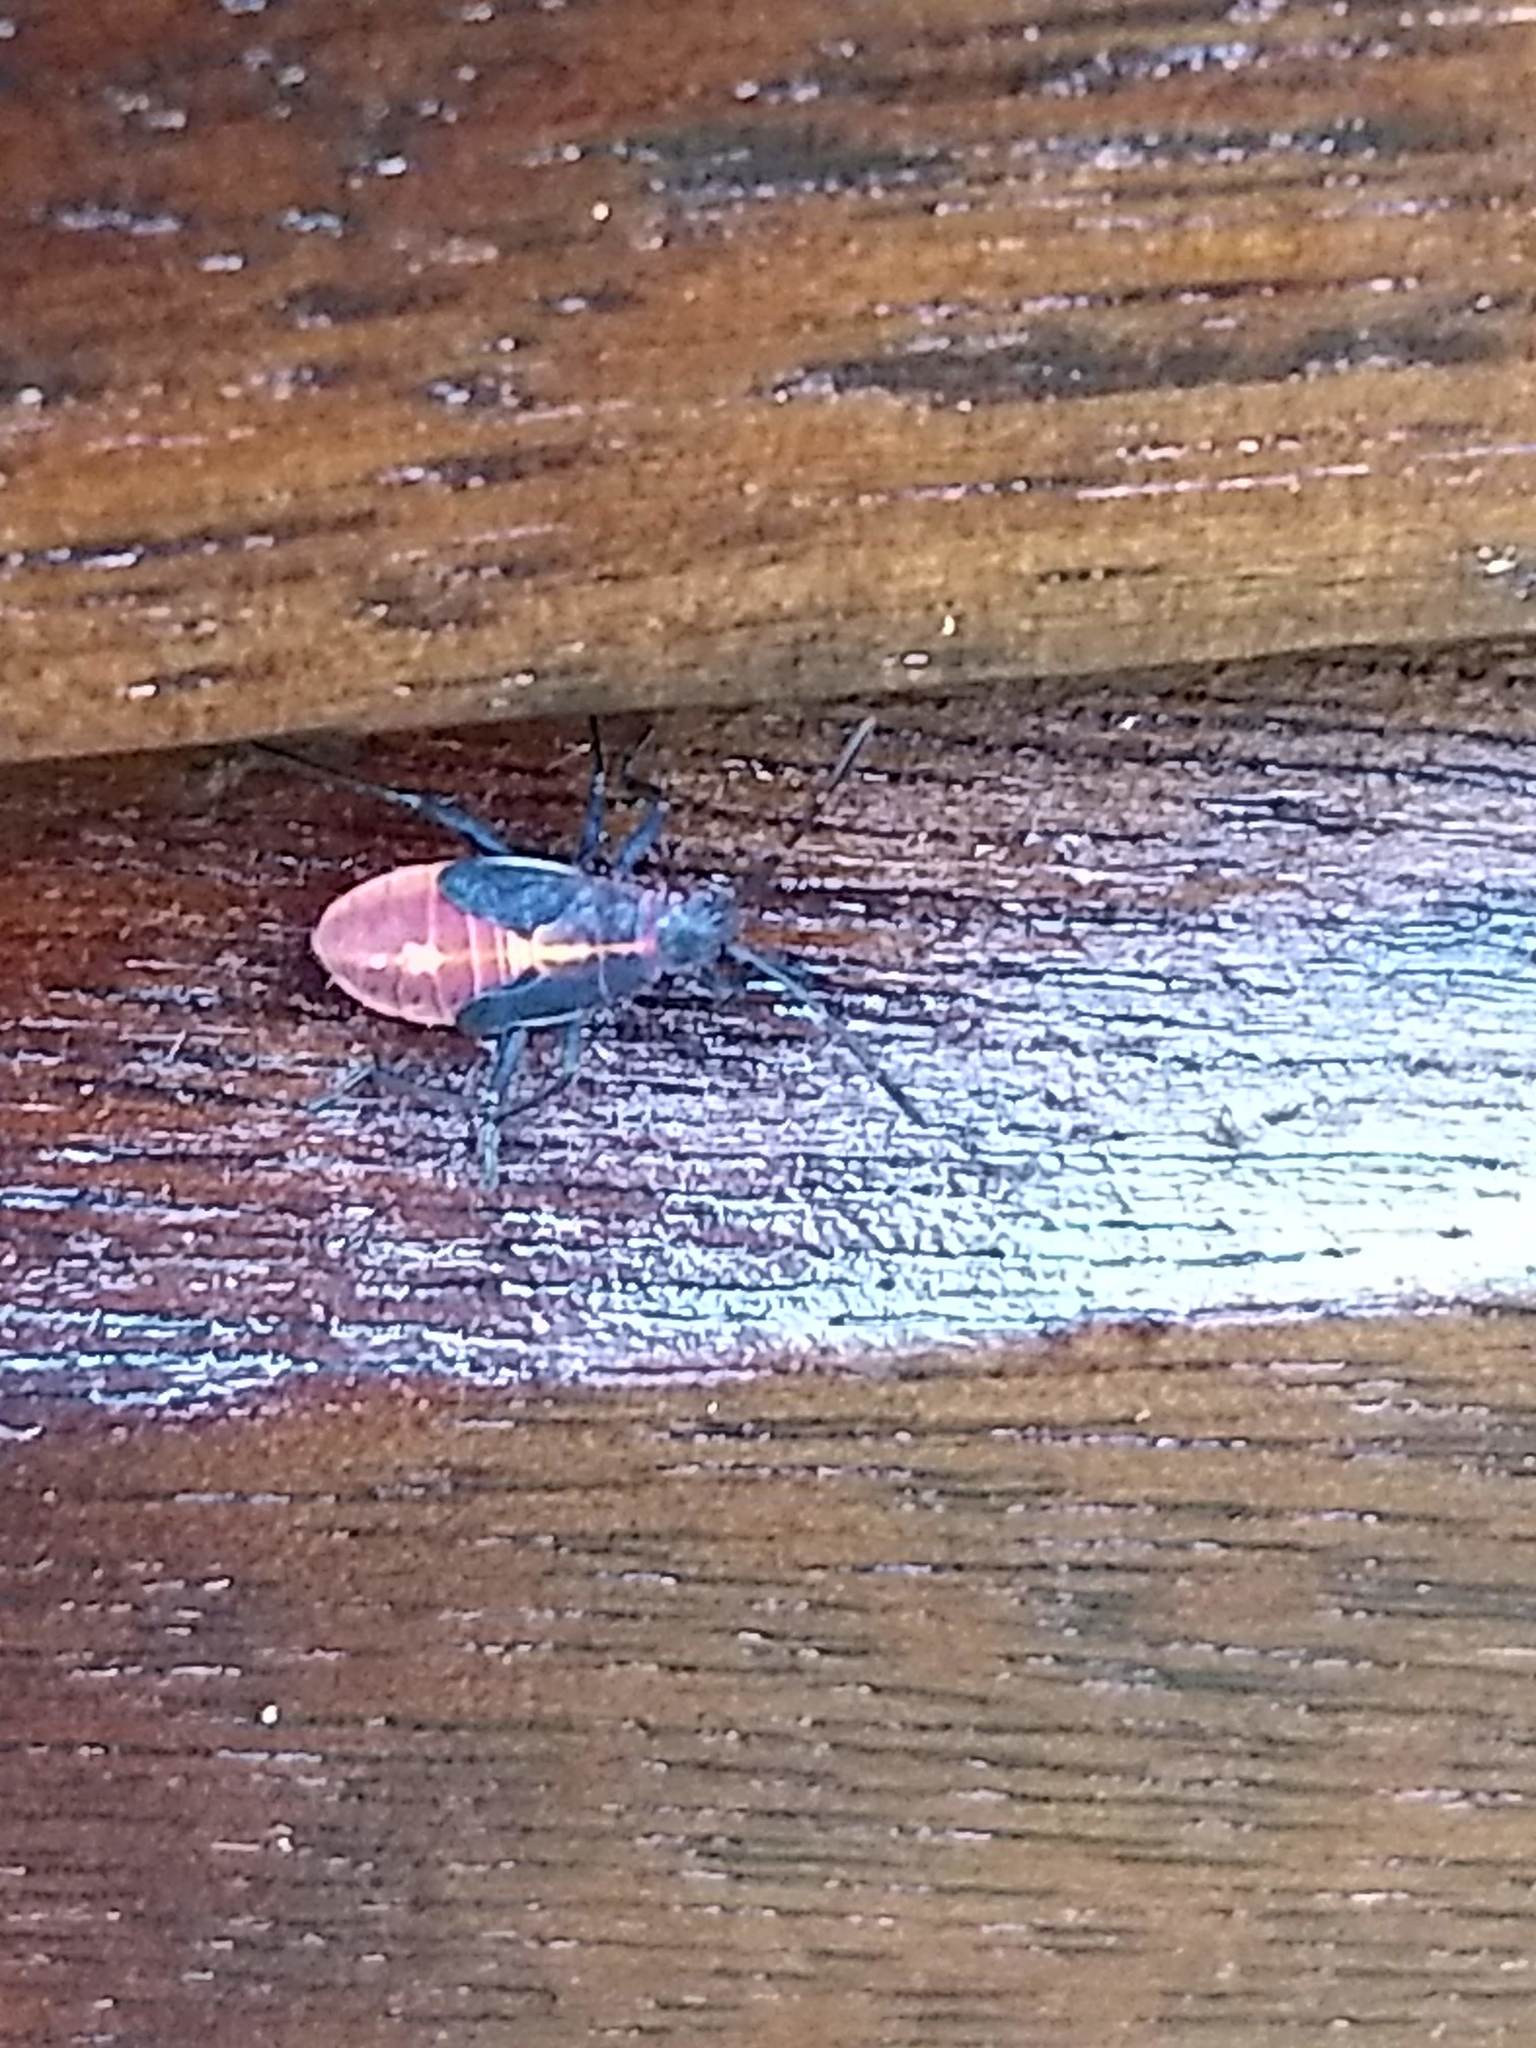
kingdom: Animalia
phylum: Arthropoda
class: Insecta
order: Hemiptera
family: Rhopalidae
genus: Boisea
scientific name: Boisea trivittata
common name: Boxelder bug
